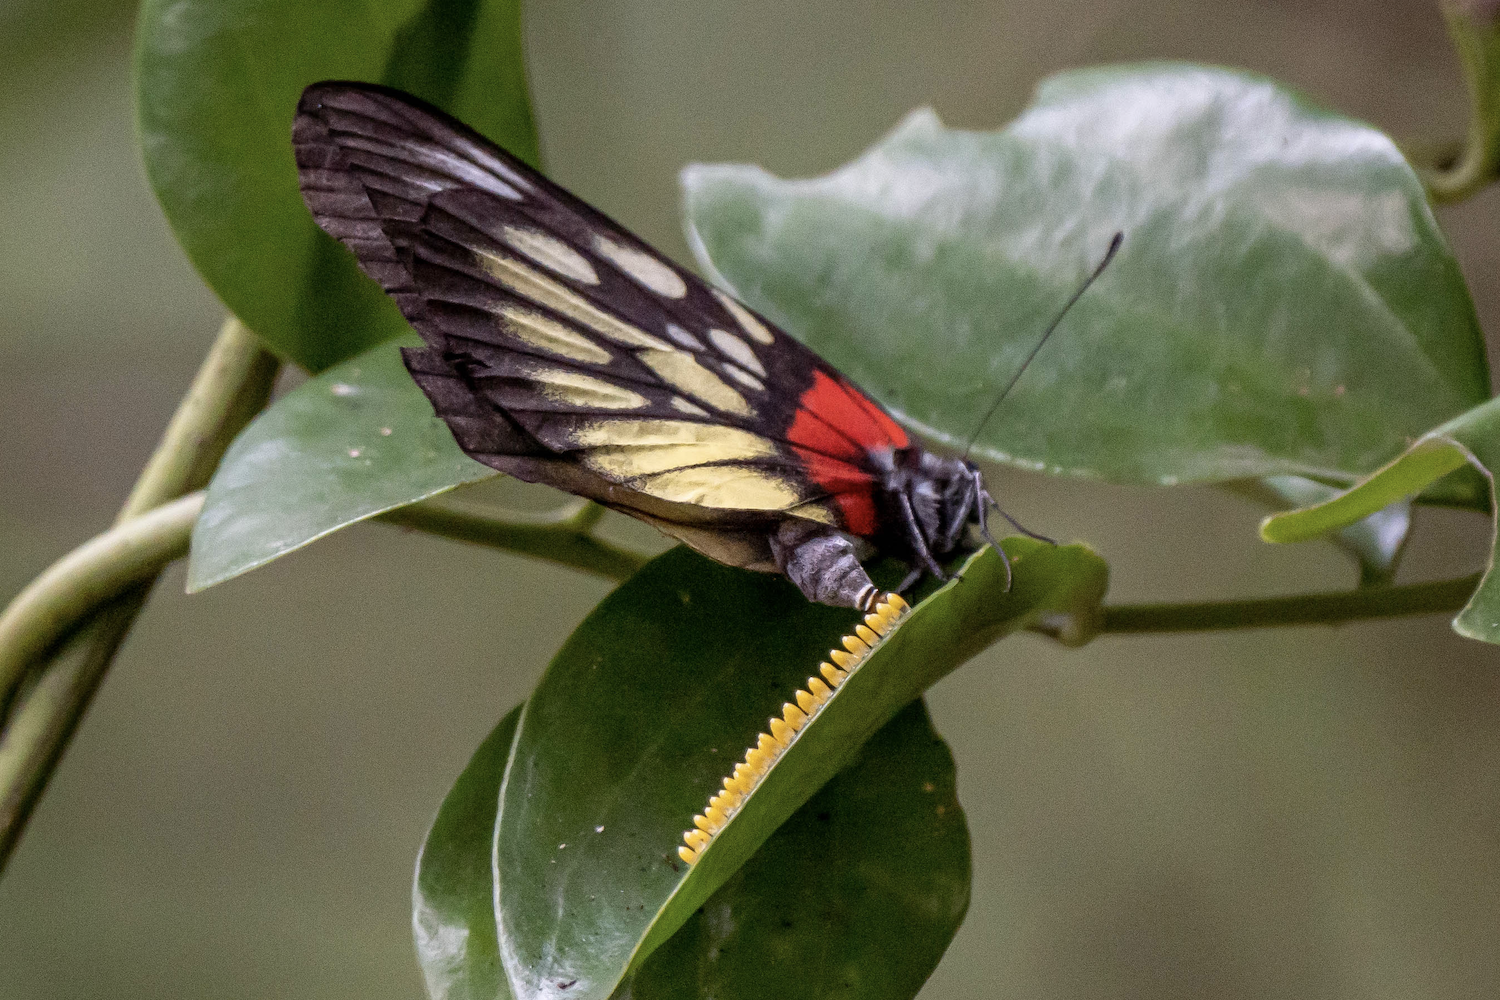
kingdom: Animalia
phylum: Arthropoda
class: Insecta
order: Lepidoptera
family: Pieridae
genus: Delias
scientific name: Delias pasithoe
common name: Red-base jezebel
